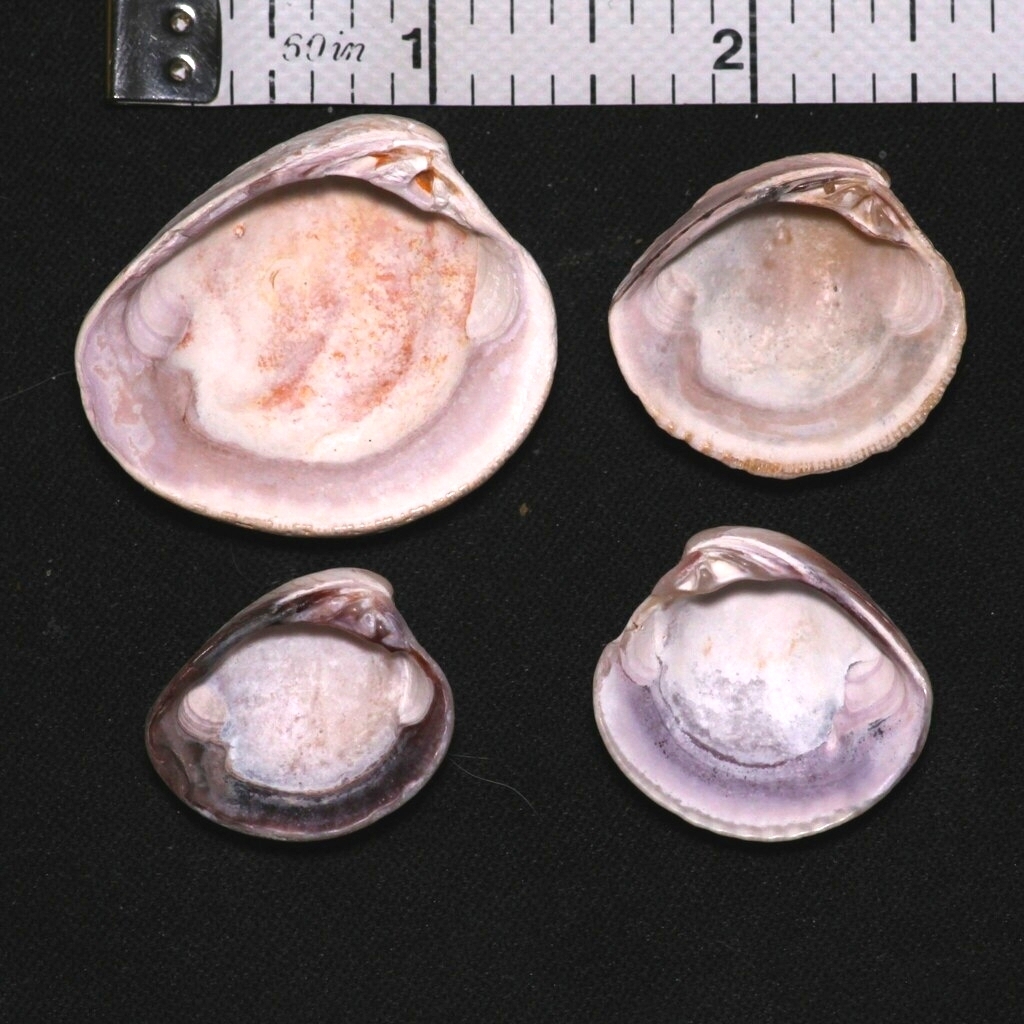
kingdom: Animalia
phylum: Mollusca
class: Bivalvia
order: Venerida
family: Veneridae
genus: Chione
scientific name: Chione elevata
